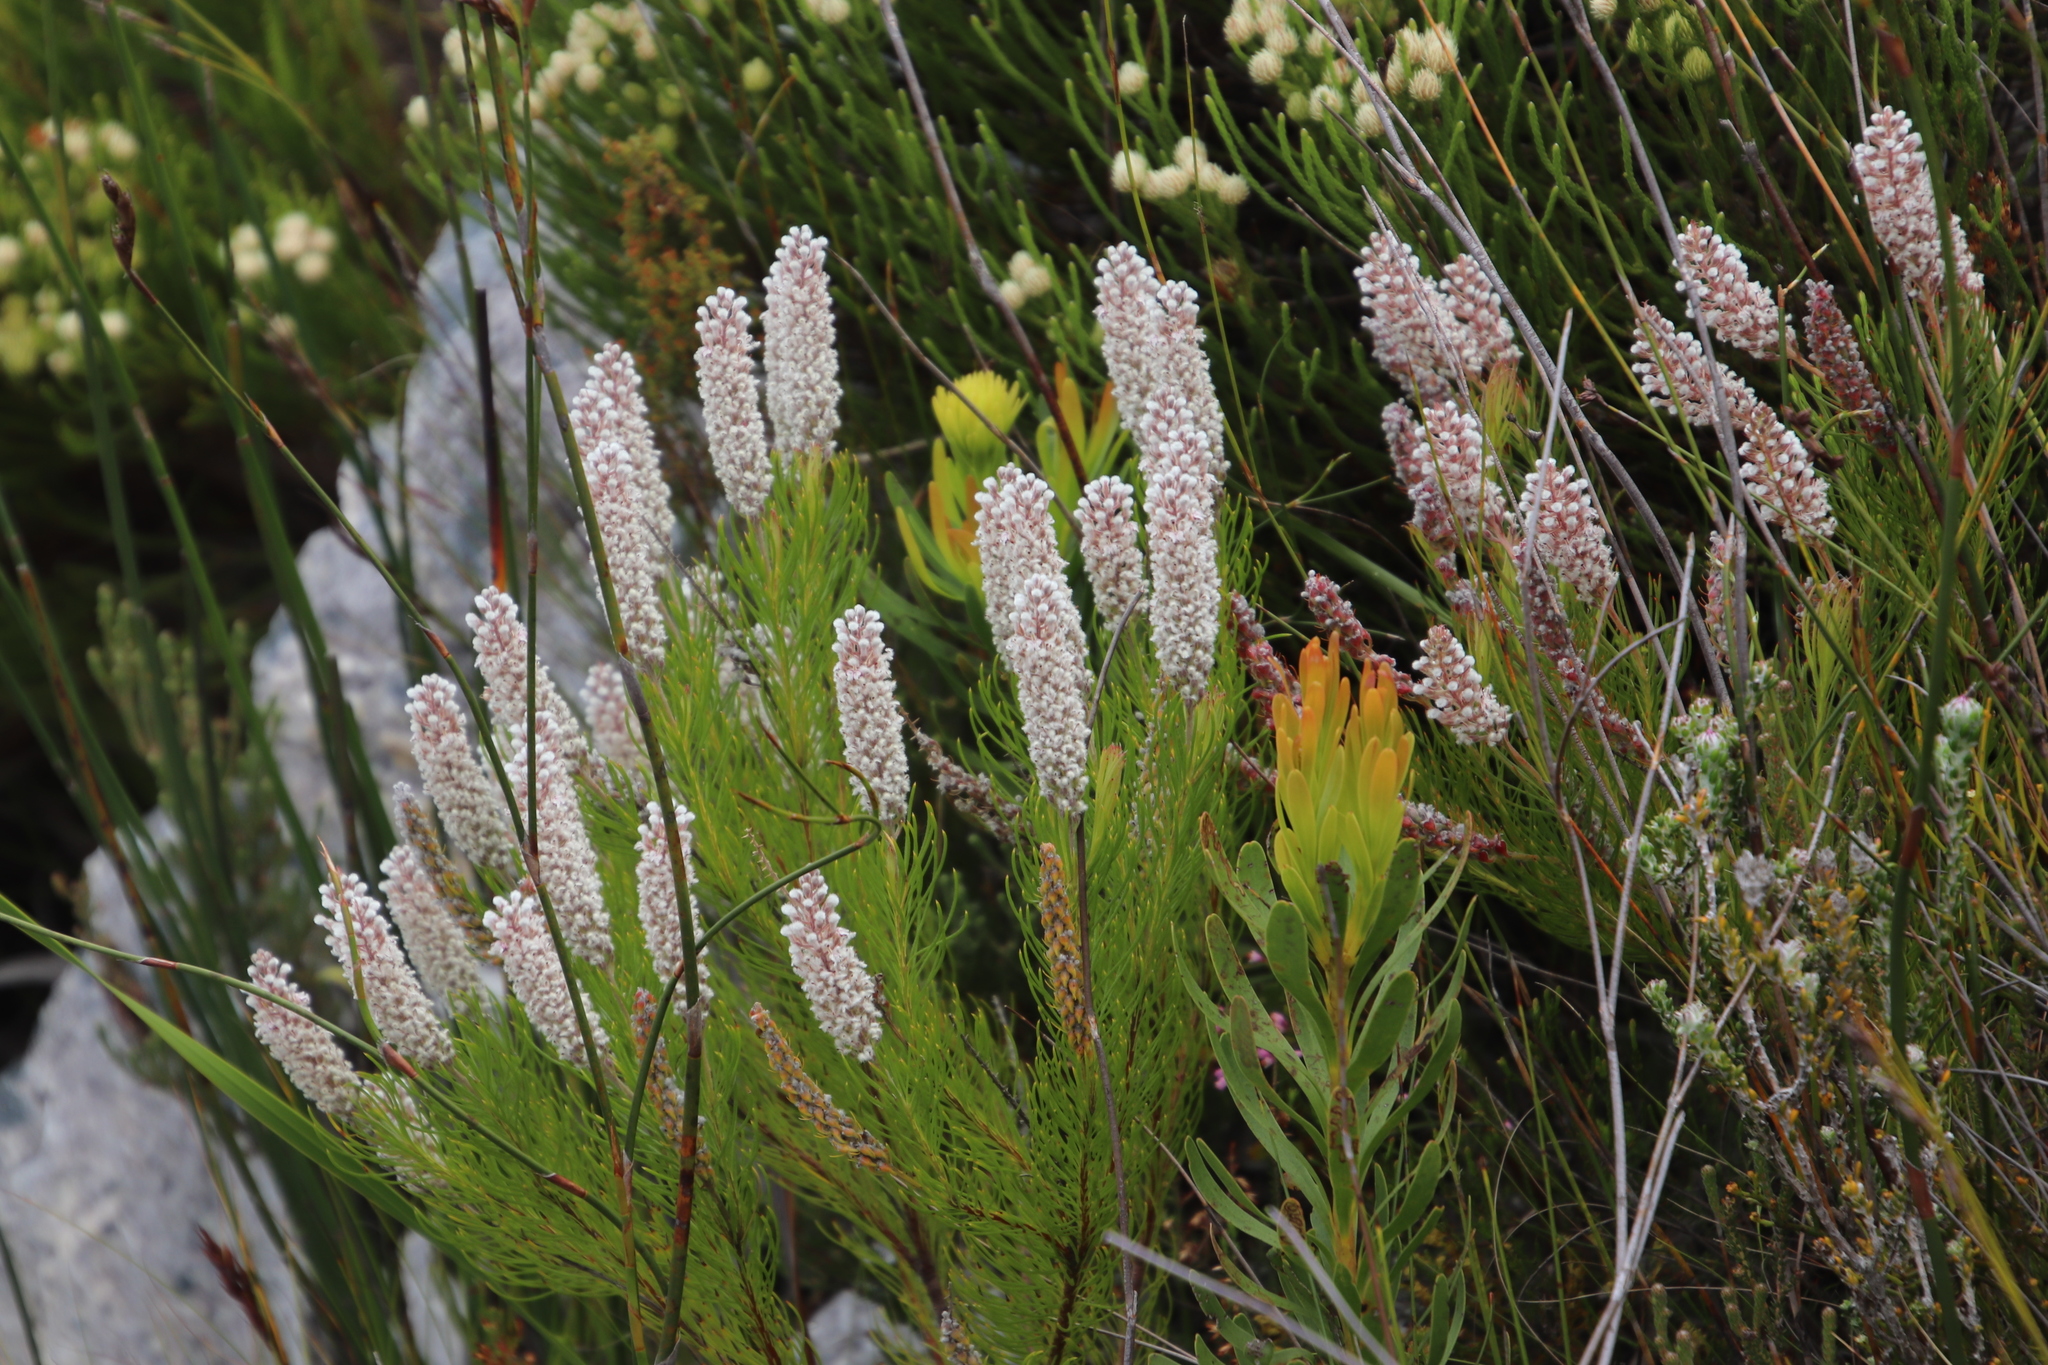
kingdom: Plantae
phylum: Tracheophyta
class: Magnoliopsida
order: Proteales
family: Proteaceae
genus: Spatalla
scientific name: Spatalla curvifolia
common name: White-stalked spoon
